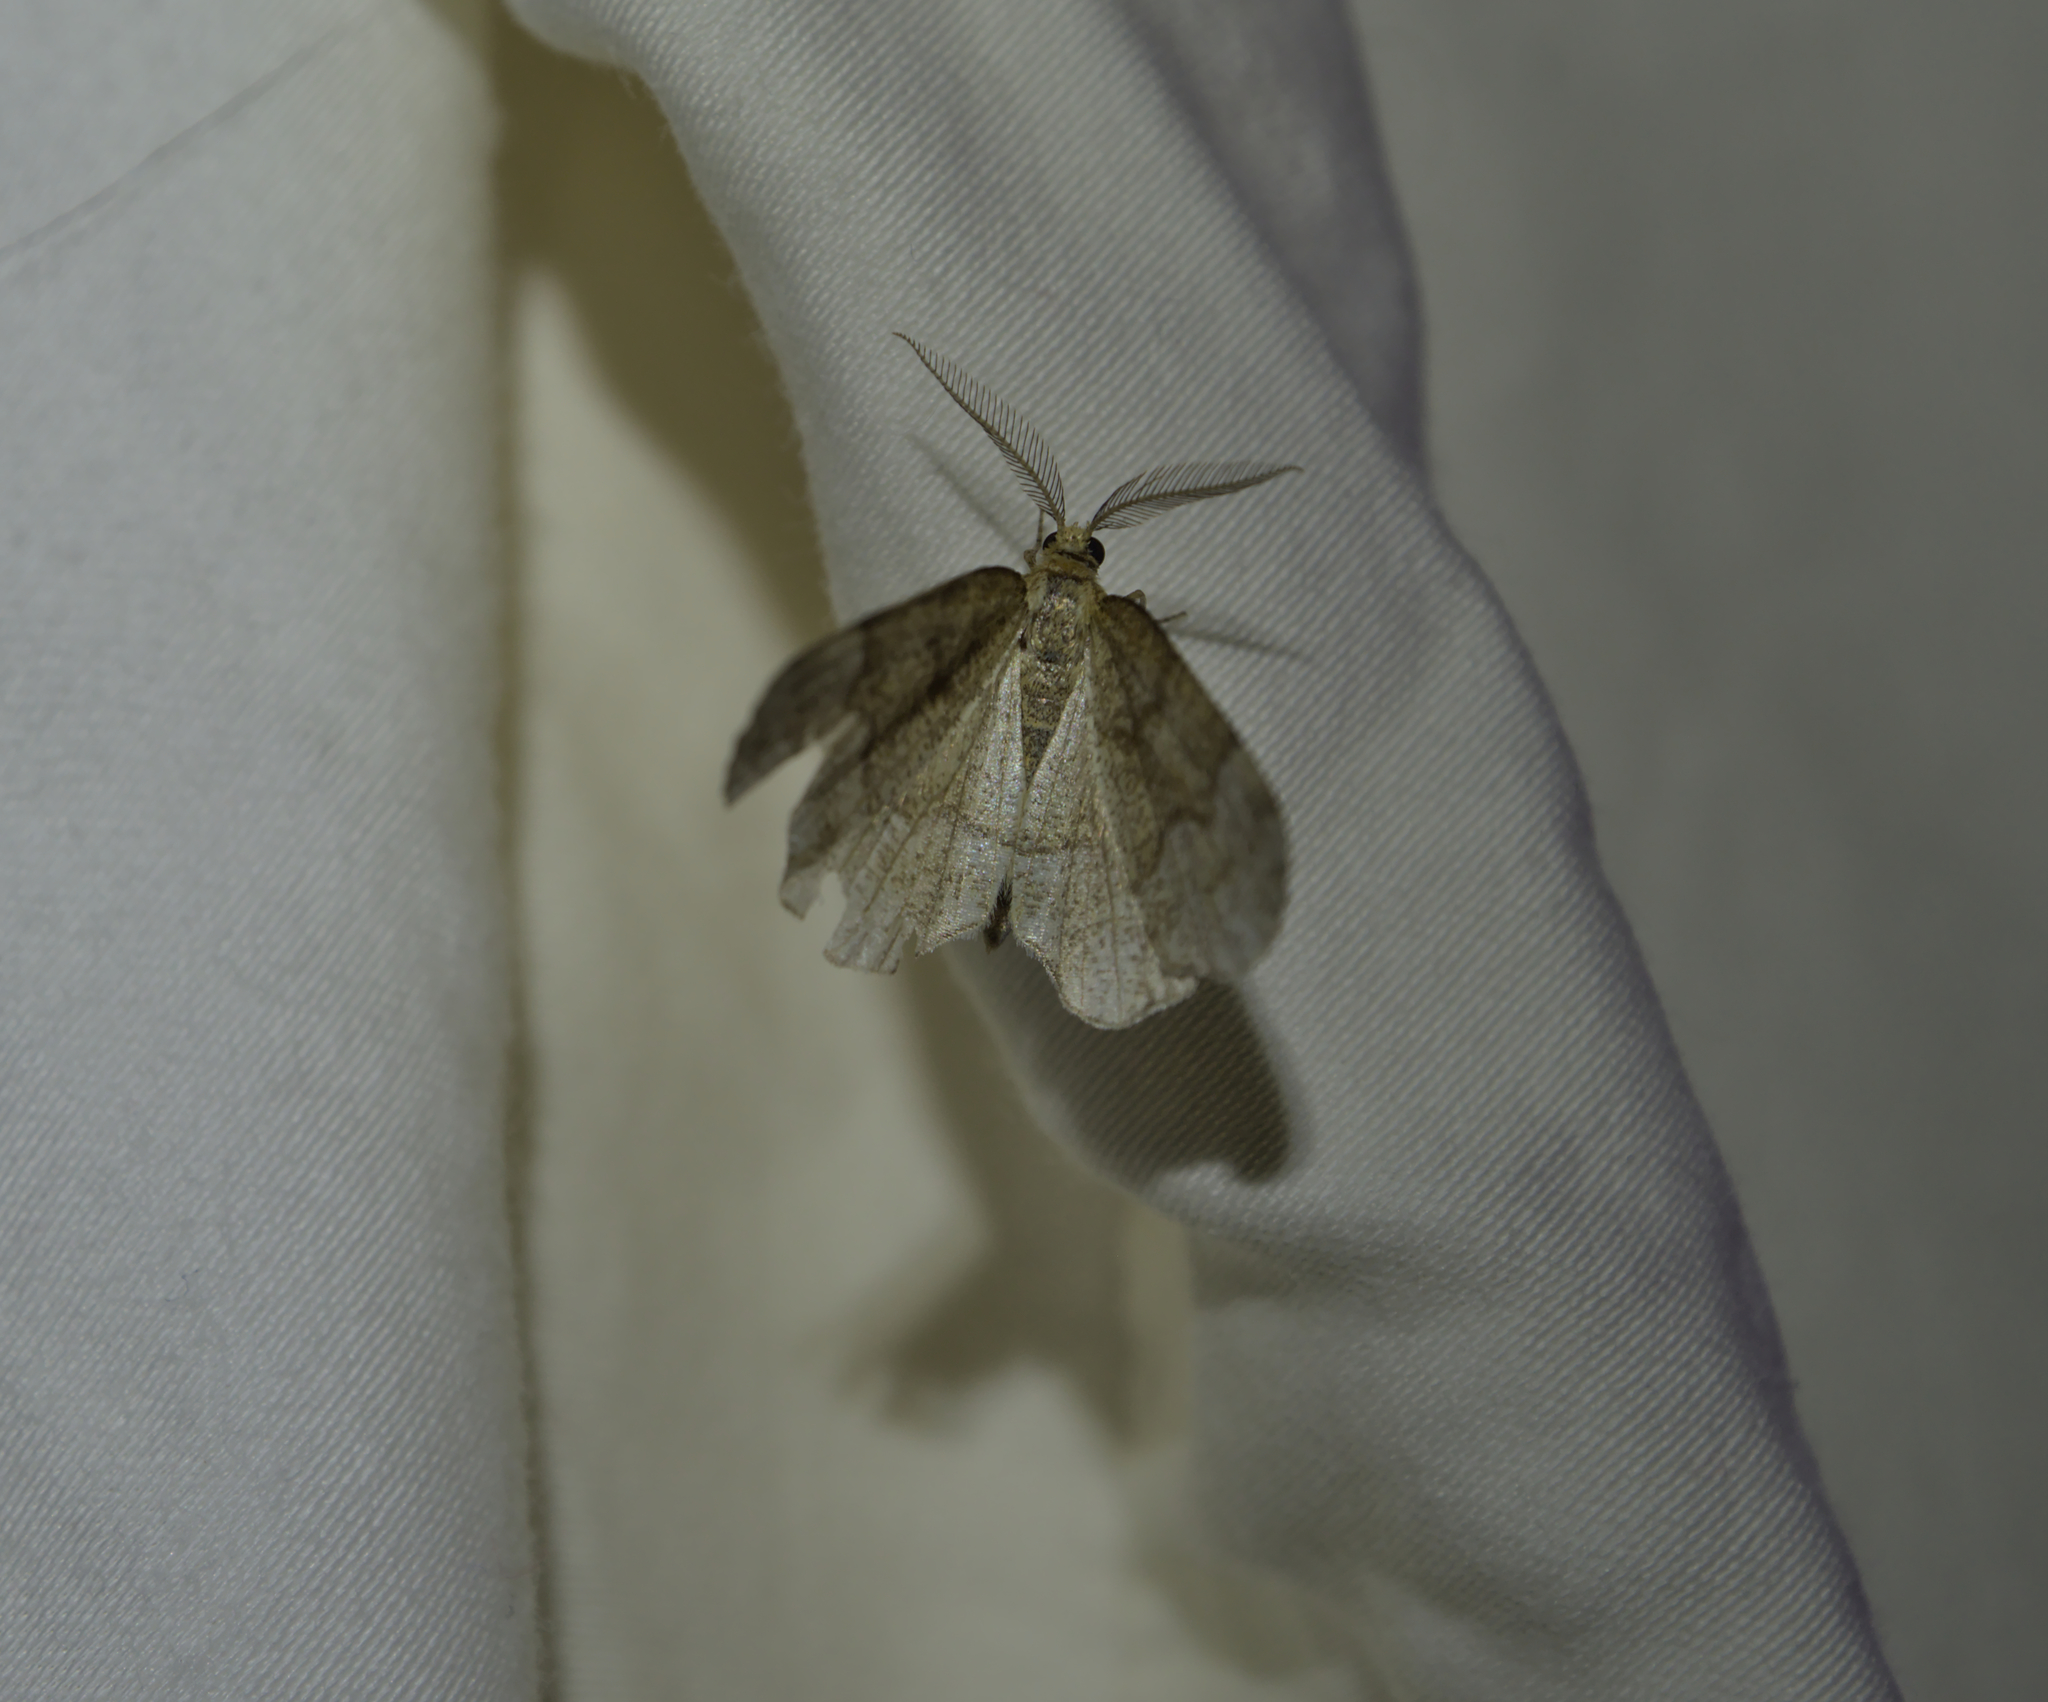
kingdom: Animalia
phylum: Arthropoda
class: Insecta
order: Lepidoptera
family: Geometridae
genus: Cepphis
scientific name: Cepphis advenaria
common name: Little thorn
